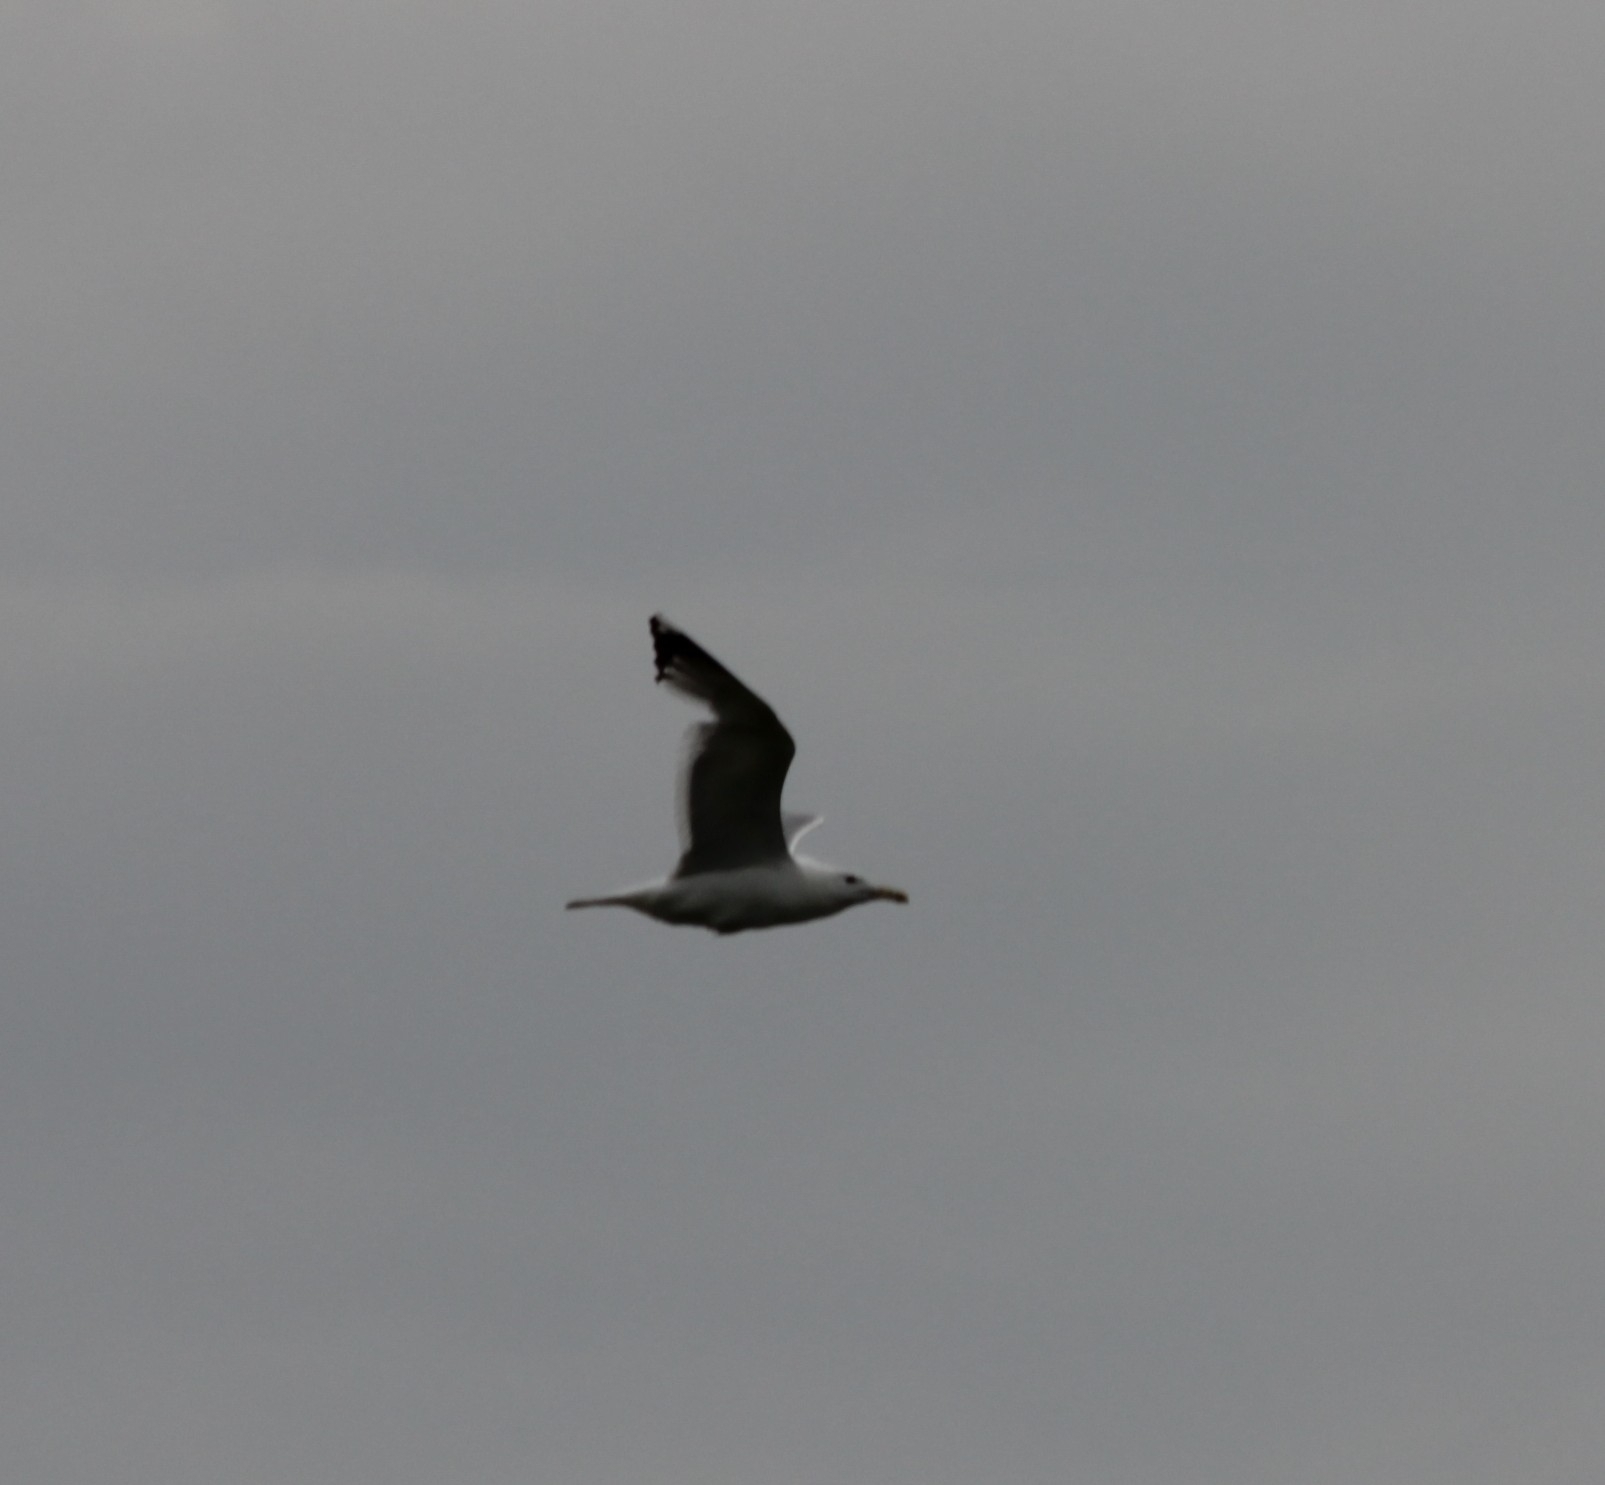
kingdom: Animalia
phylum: Chordata
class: Aves
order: Charadriiformes
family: Laridae
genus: Larus
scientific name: Larus cachinnans
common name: Caspian gull
